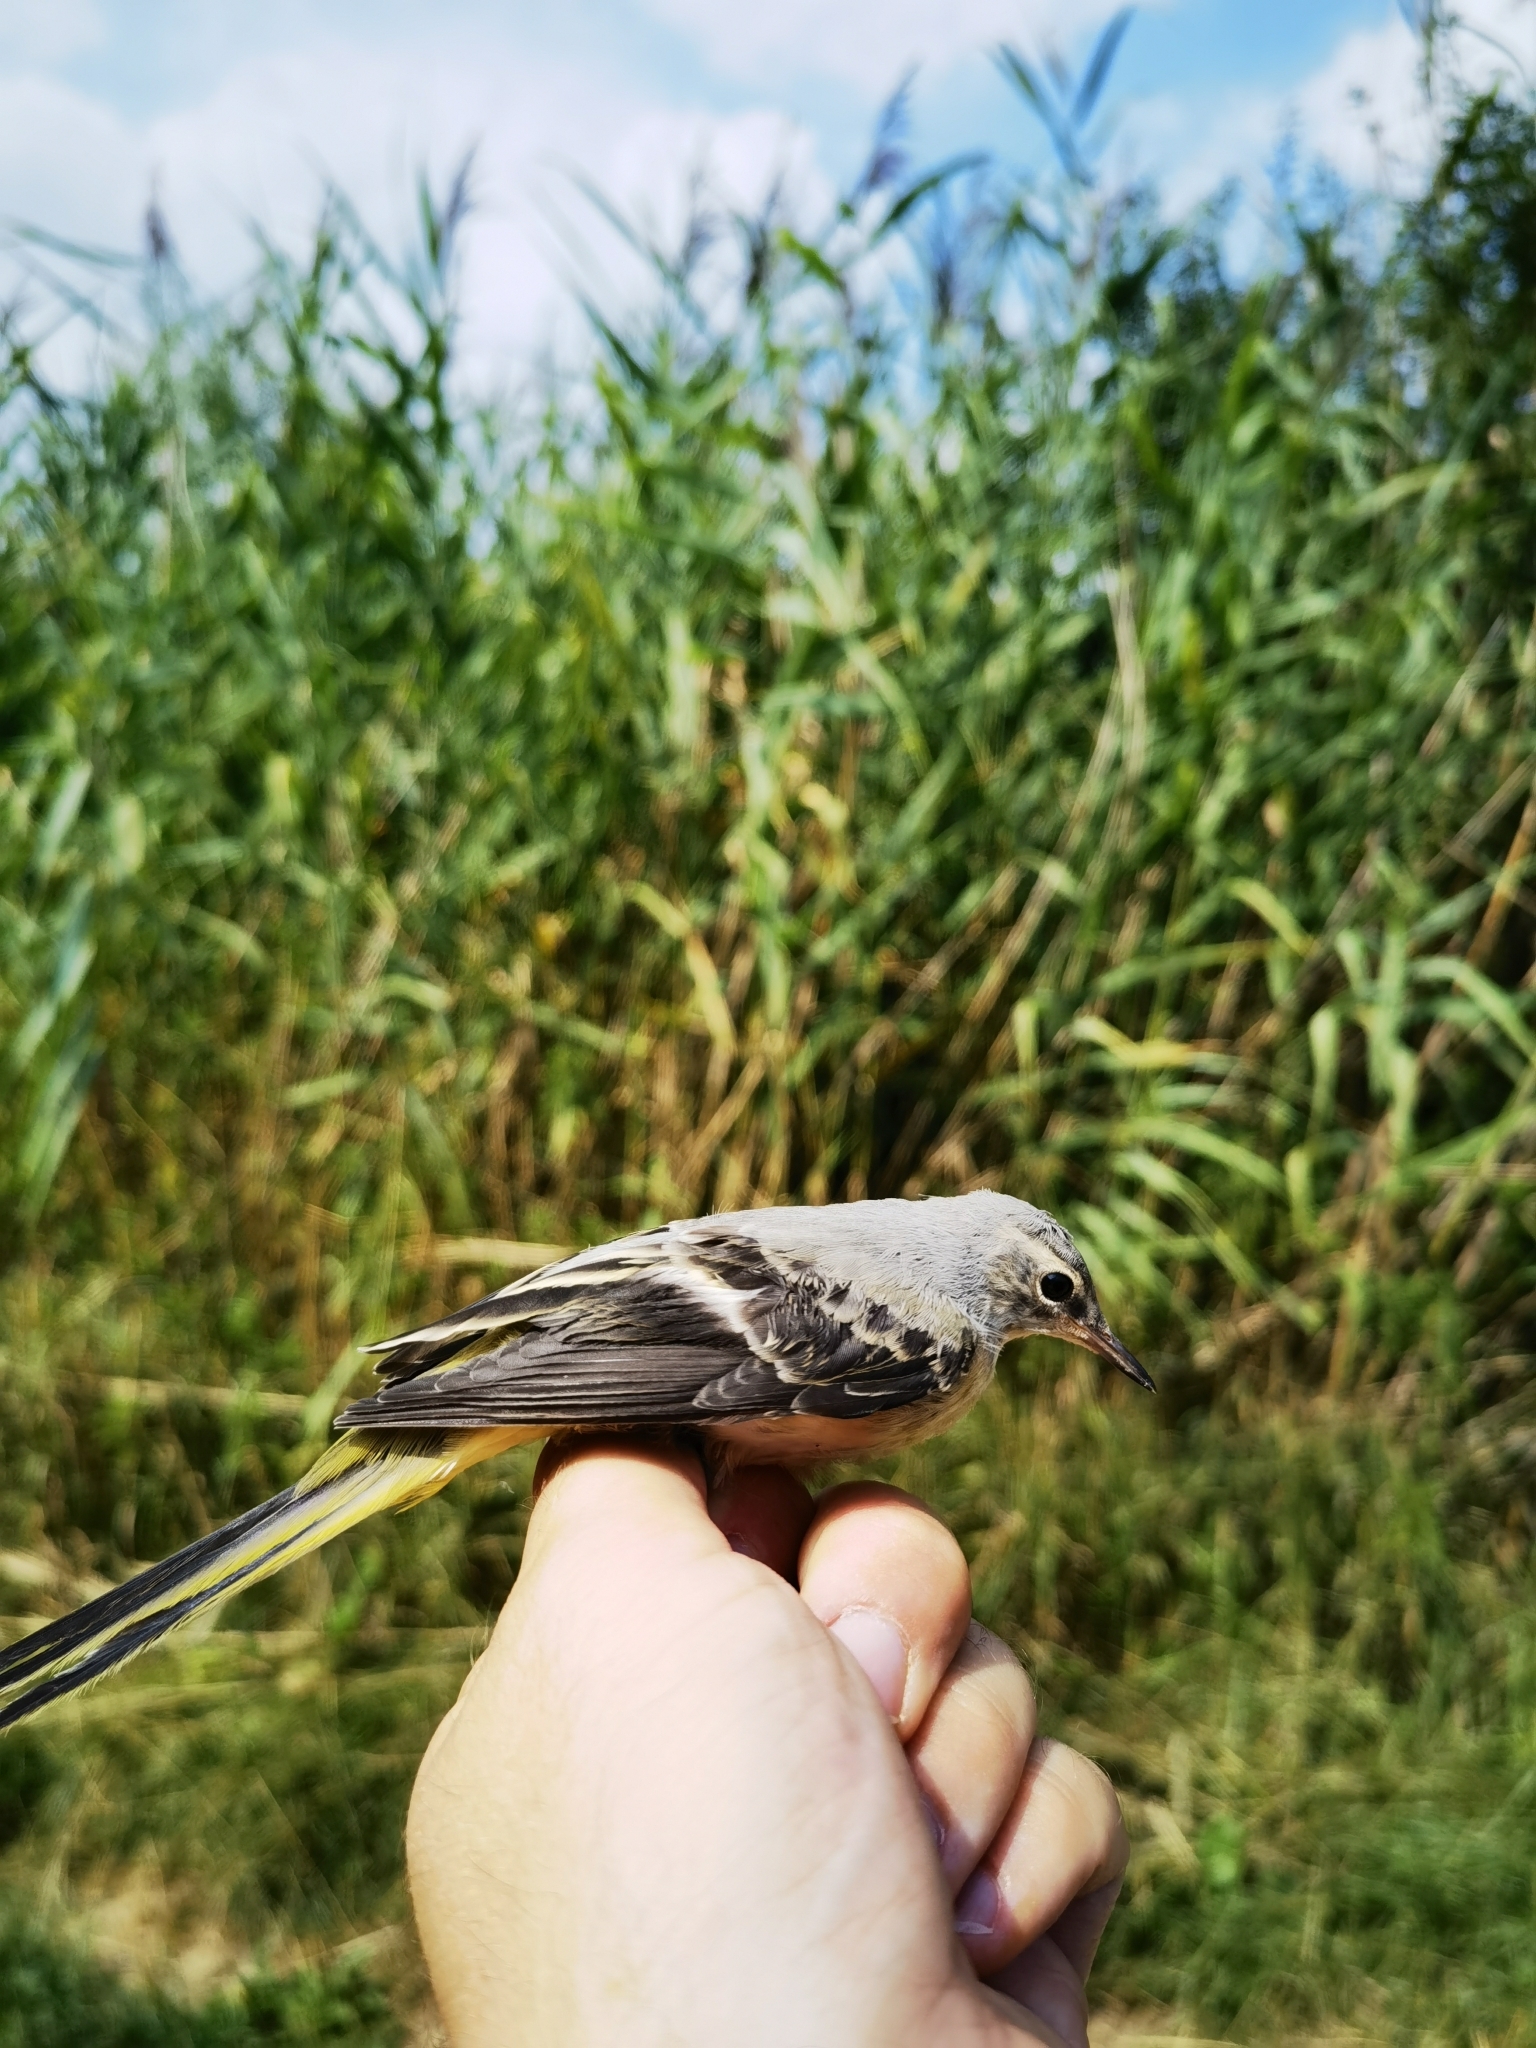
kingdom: Animalia
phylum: Chordata
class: Aves
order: Passeriformes
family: Motacillidae
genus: Motacilla
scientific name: Motacilla cinerea
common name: Grey wagtail
